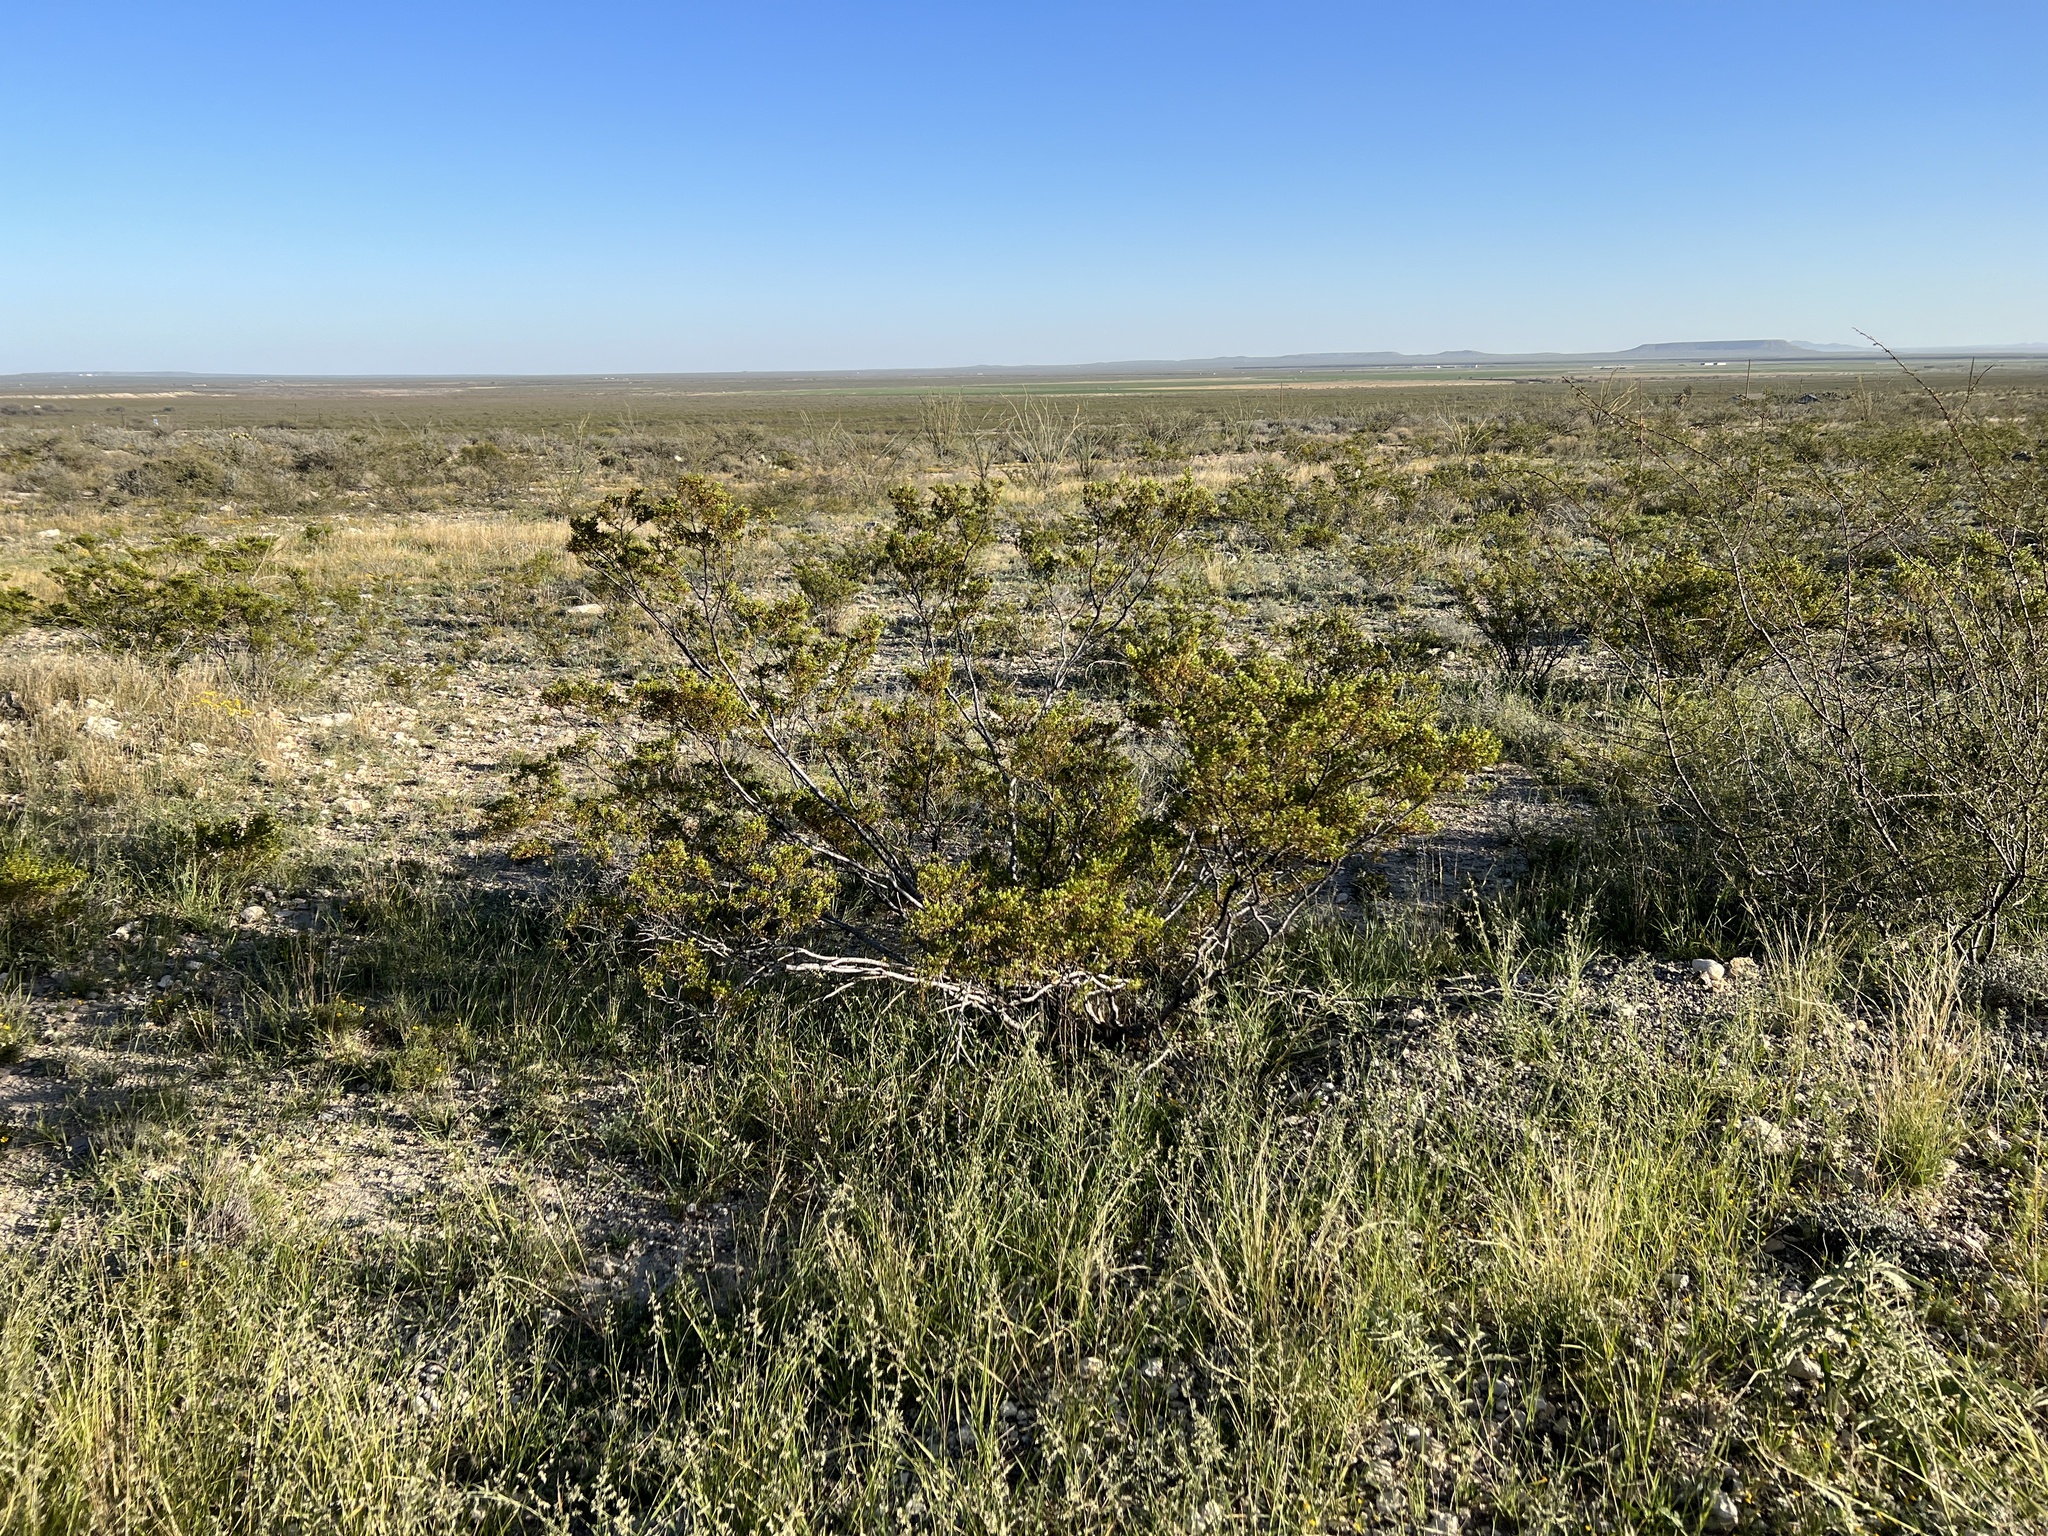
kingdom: Plantae
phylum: Tracheophyta
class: Magnoliopsida
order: Zygophyllales
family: Zygophyllaceae
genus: Larrea
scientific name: Larrea tridentata
